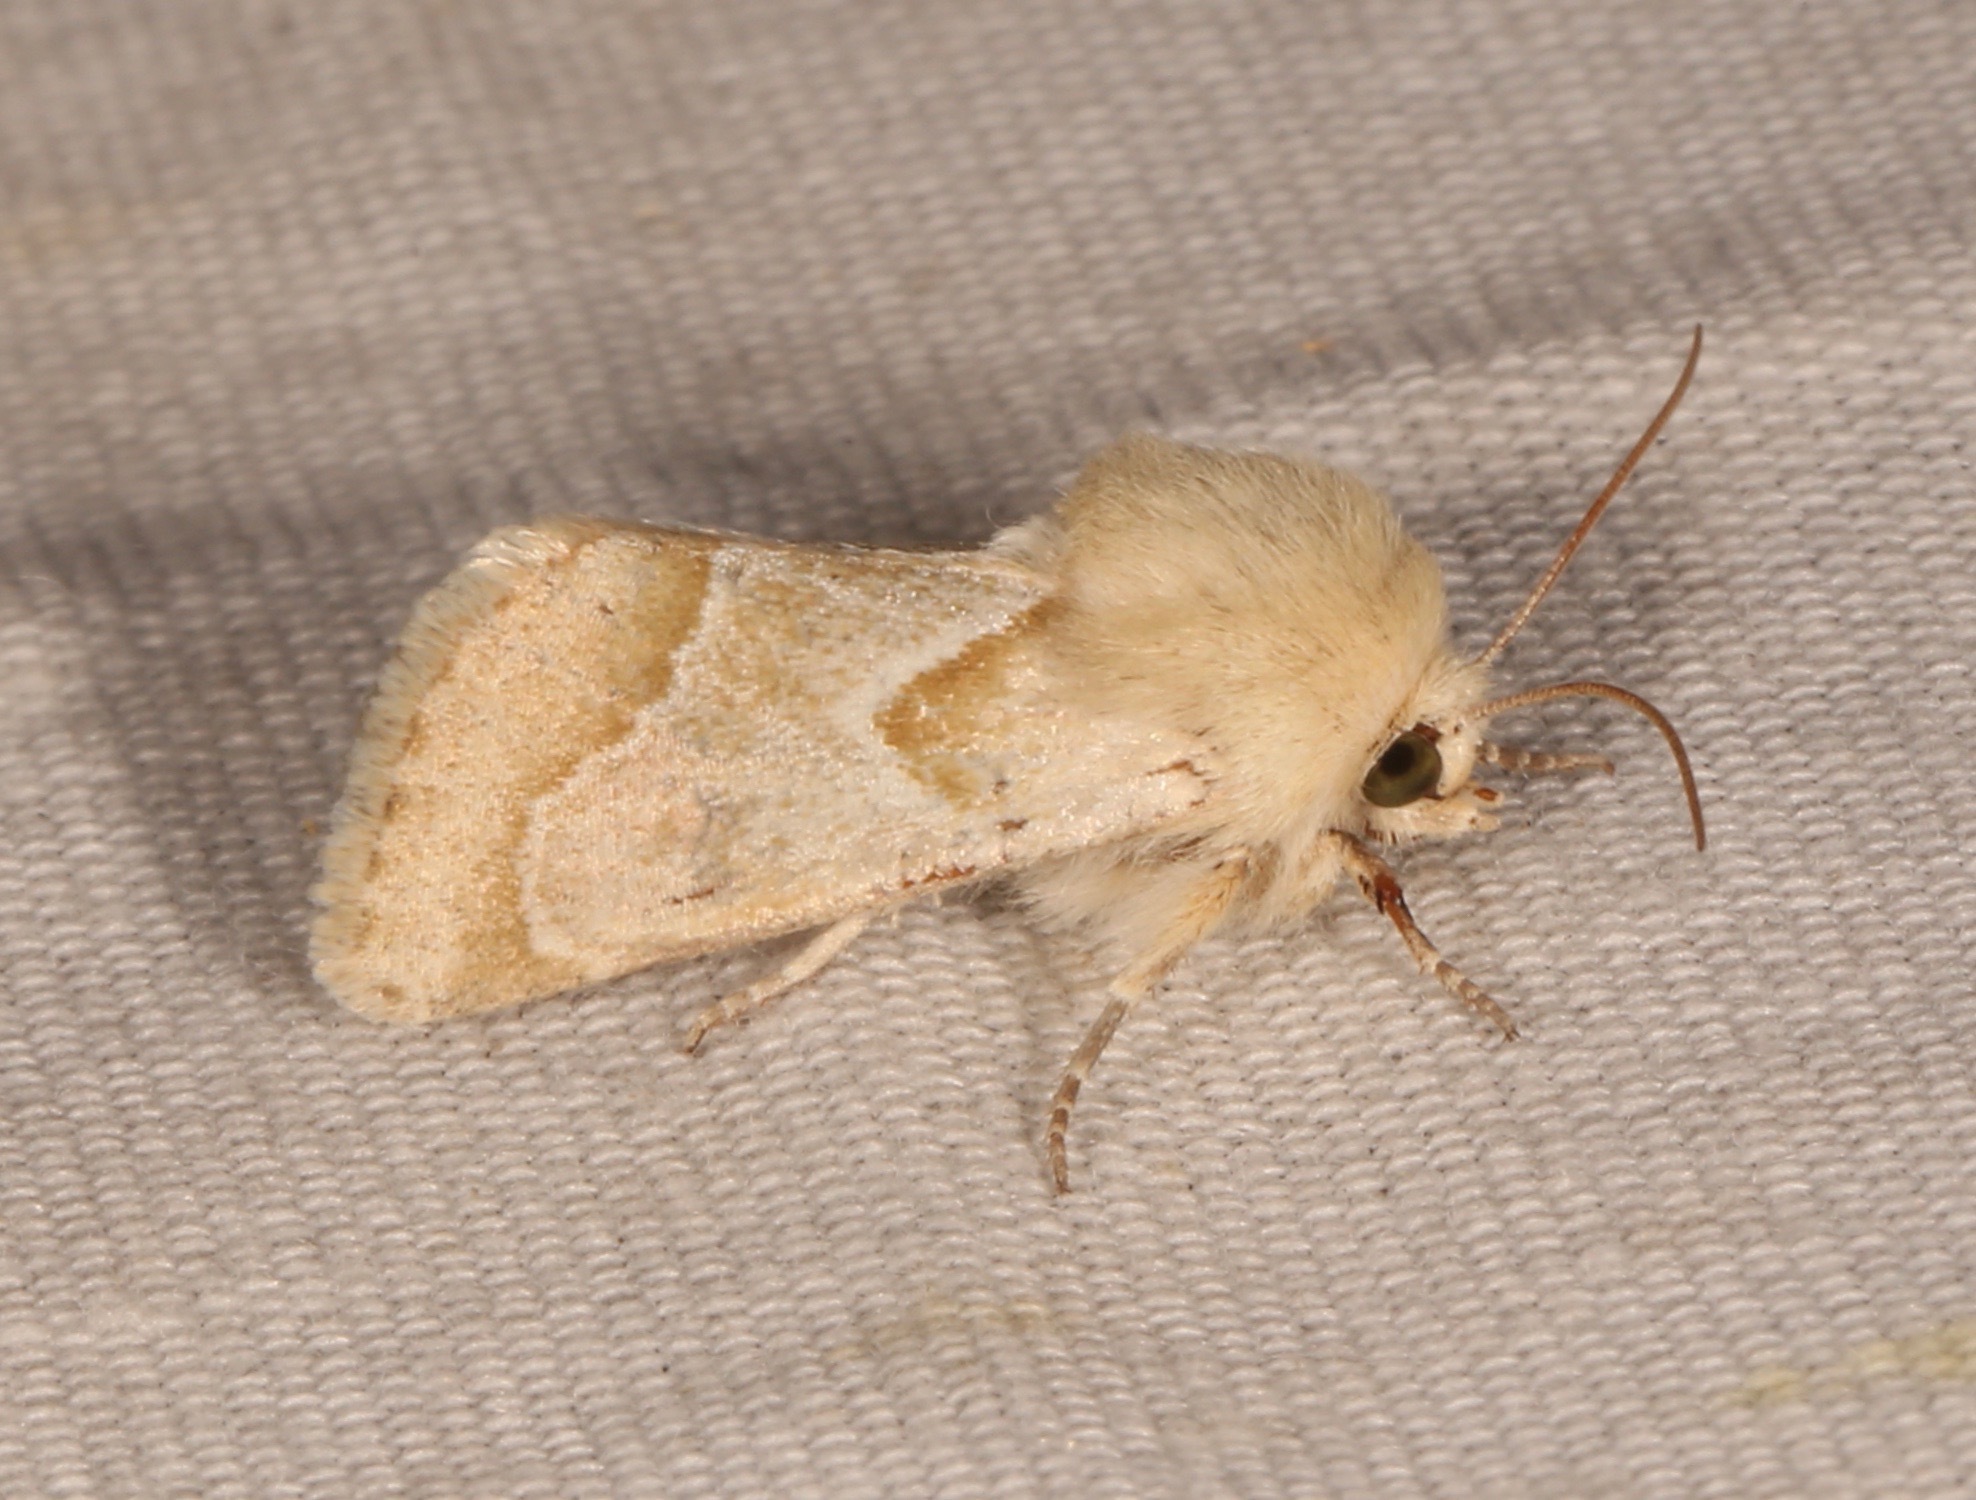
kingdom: Animalia
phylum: Arthropoda
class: Insecta
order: Lepidoptera
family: Noctuidae
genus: Schinia
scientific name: Schinia ligeae
